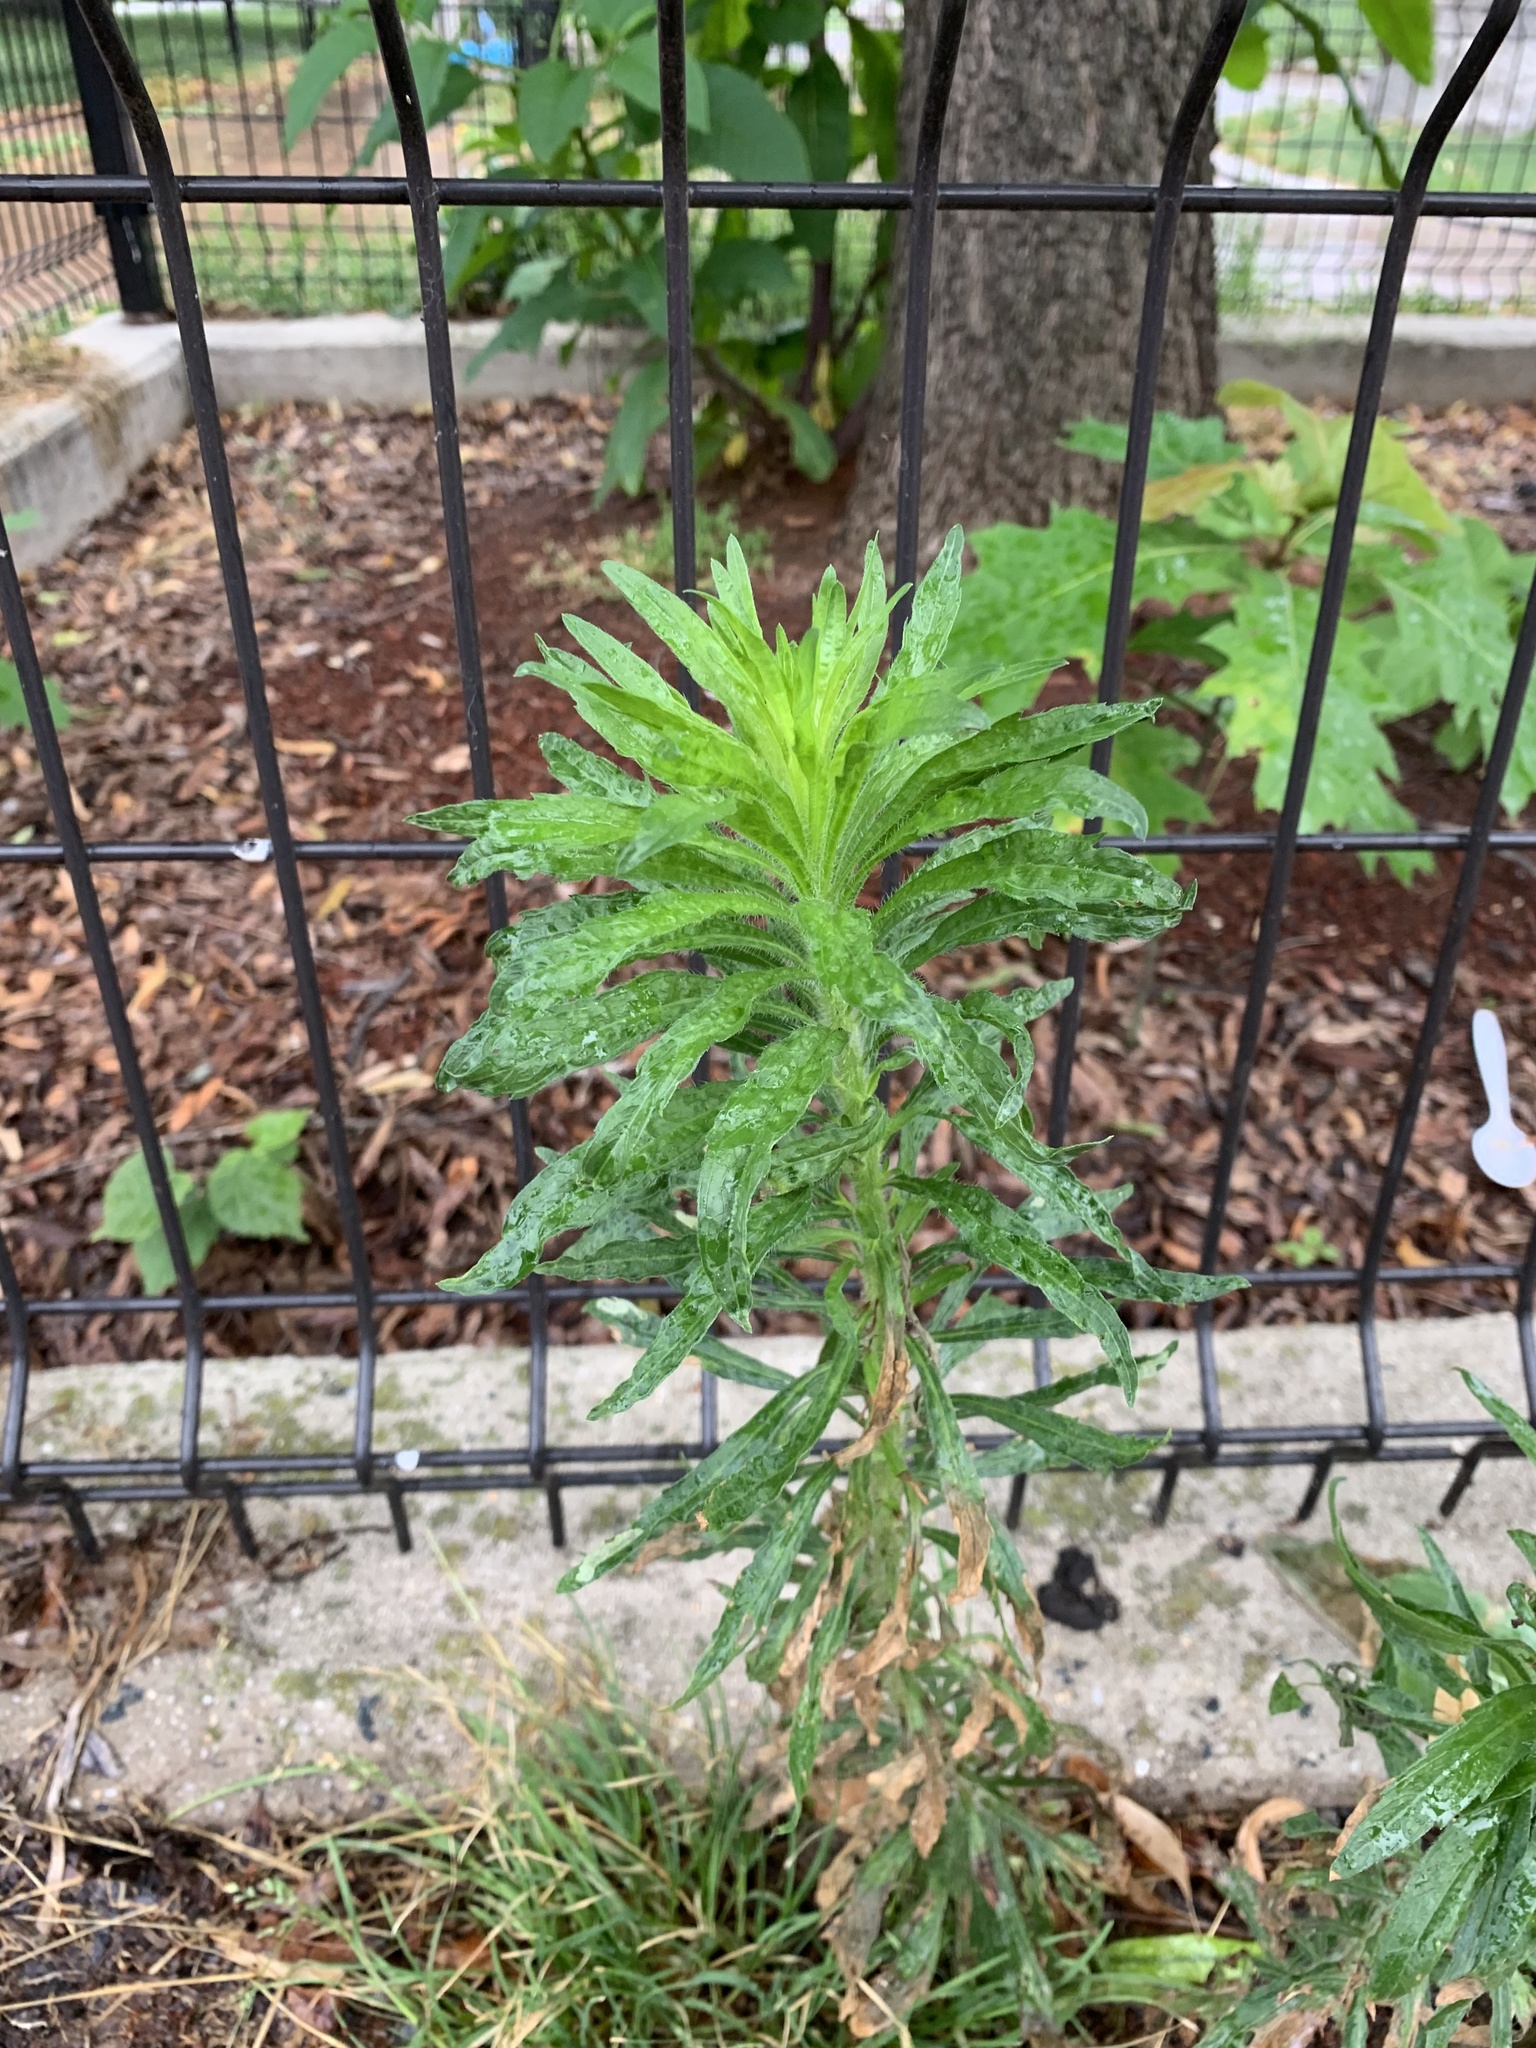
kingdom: Plantae
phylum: Tracheophyta
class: Magnoliopsida
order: Asterales
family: Asteraceae
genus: Erigeron
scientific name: Erigeron canadensis
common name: Canadian fleabane
